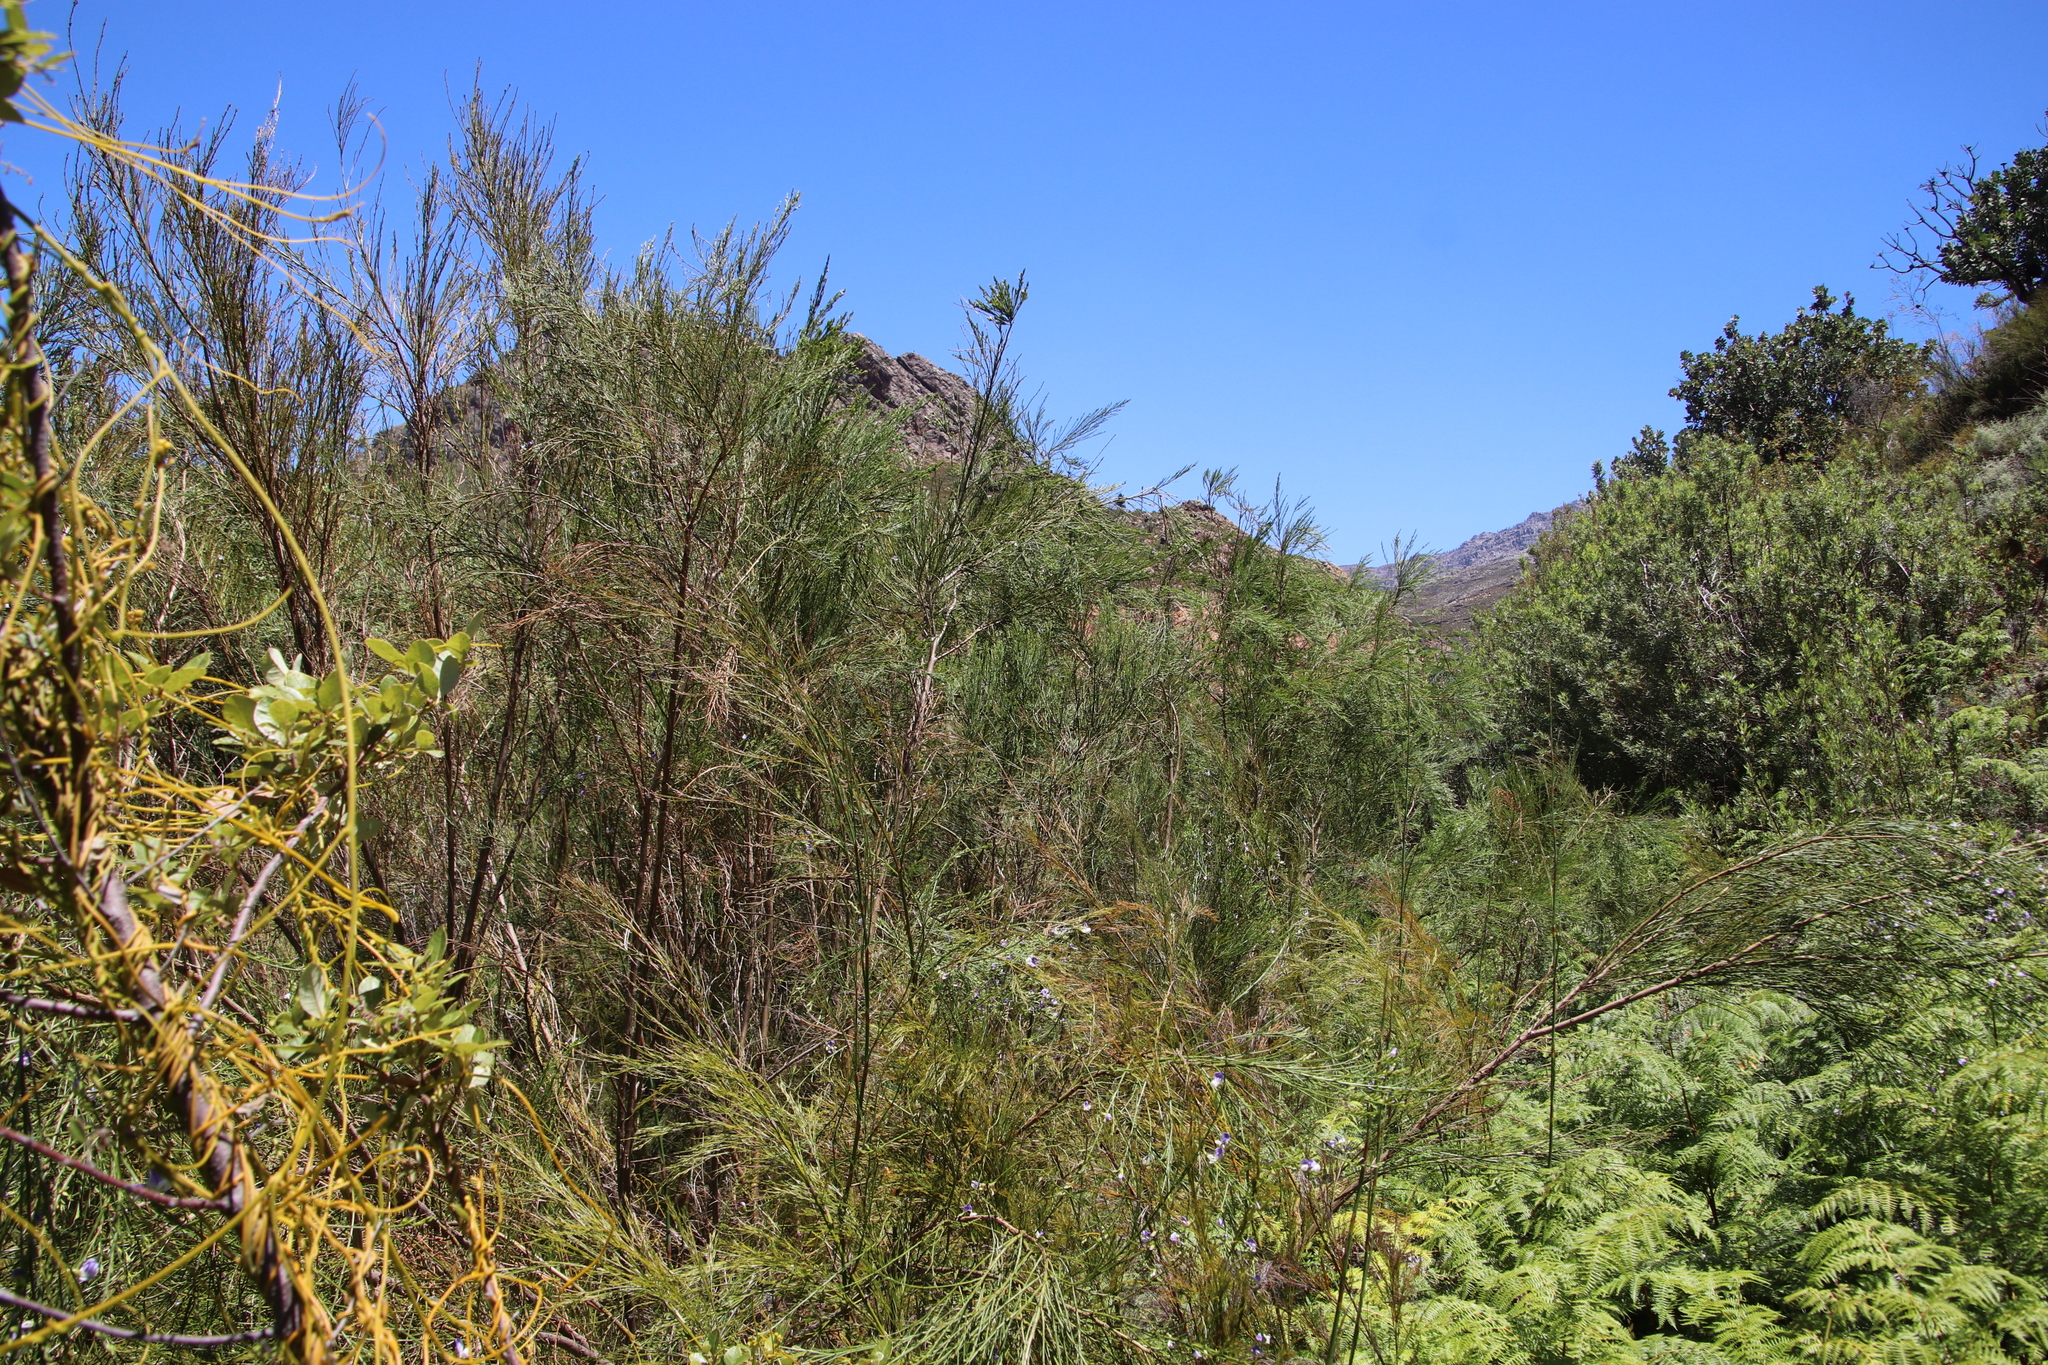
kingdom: Plantae
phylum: Tracheophyta
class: Magnoliopsida
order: Fabales
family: Fabaceae
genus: Psoralea
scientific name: Psoralea fleta
